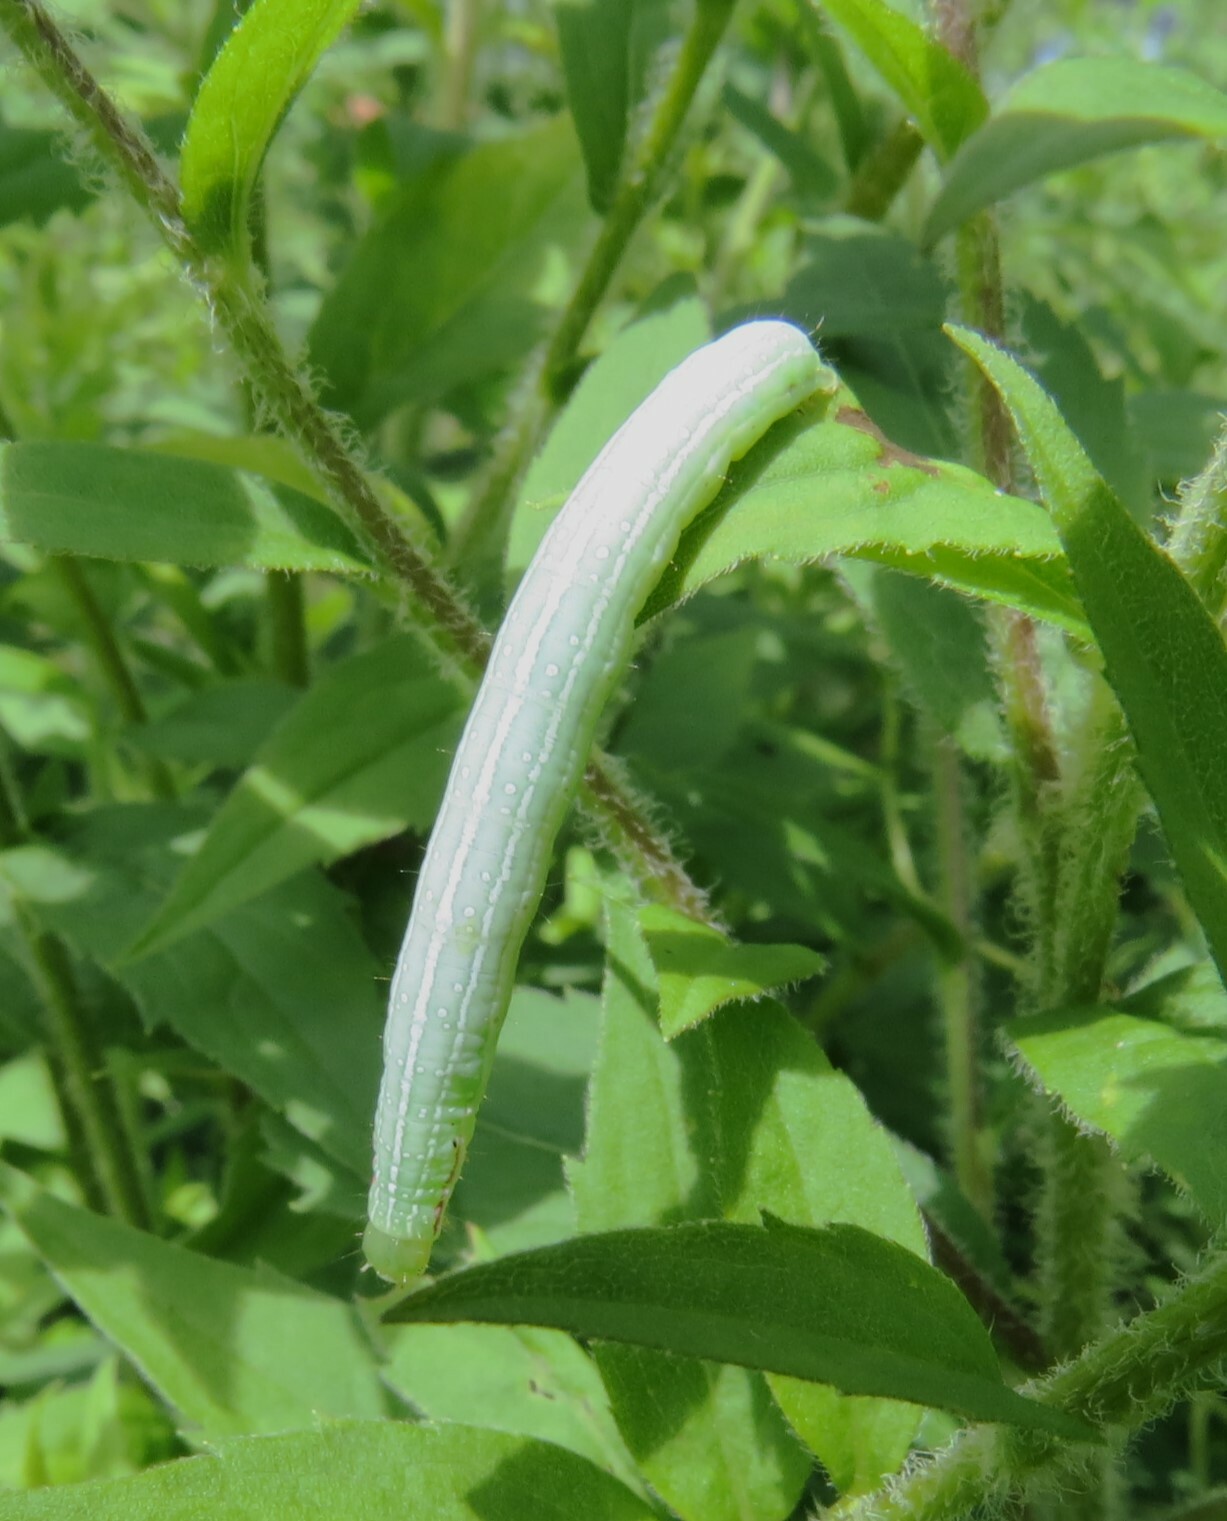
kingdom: Animalia
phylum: Arthropoda
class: Insecta
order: Lepidoptera
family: Nymphalidae
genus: Coenonympha
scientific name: Coenonympha california
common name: Common ringlet
